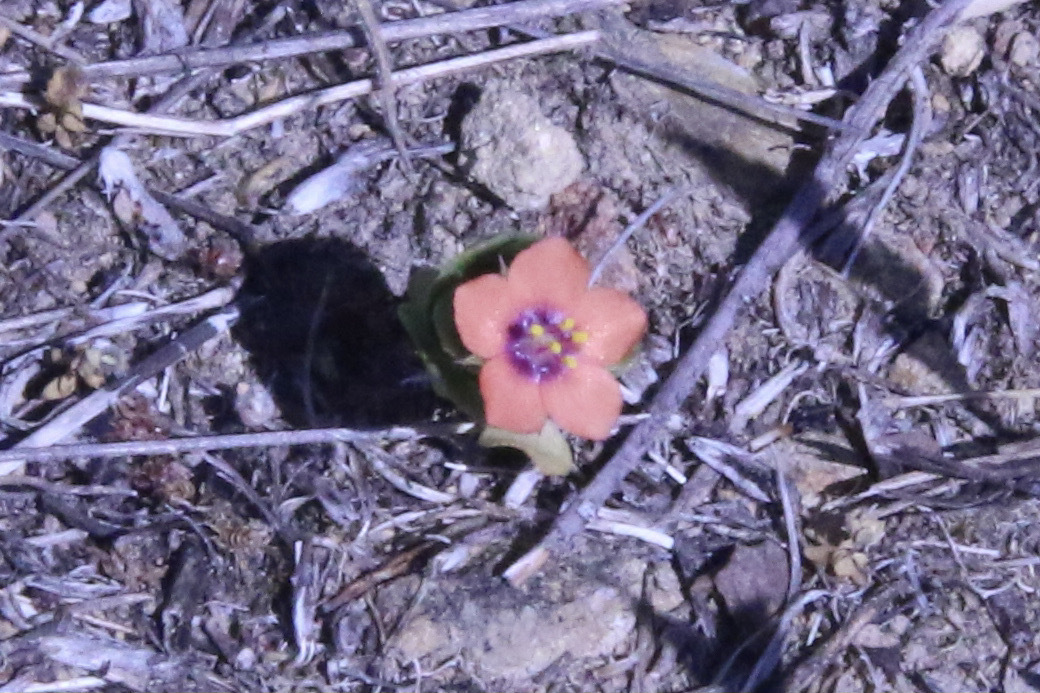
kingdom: Plantae
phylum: Tracheophyta
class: Magnoliopsida
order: Ericales
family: Primulaceae
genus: Lysimachia
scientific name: Lysimachia arvensis
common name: Scarlet pimpernel
